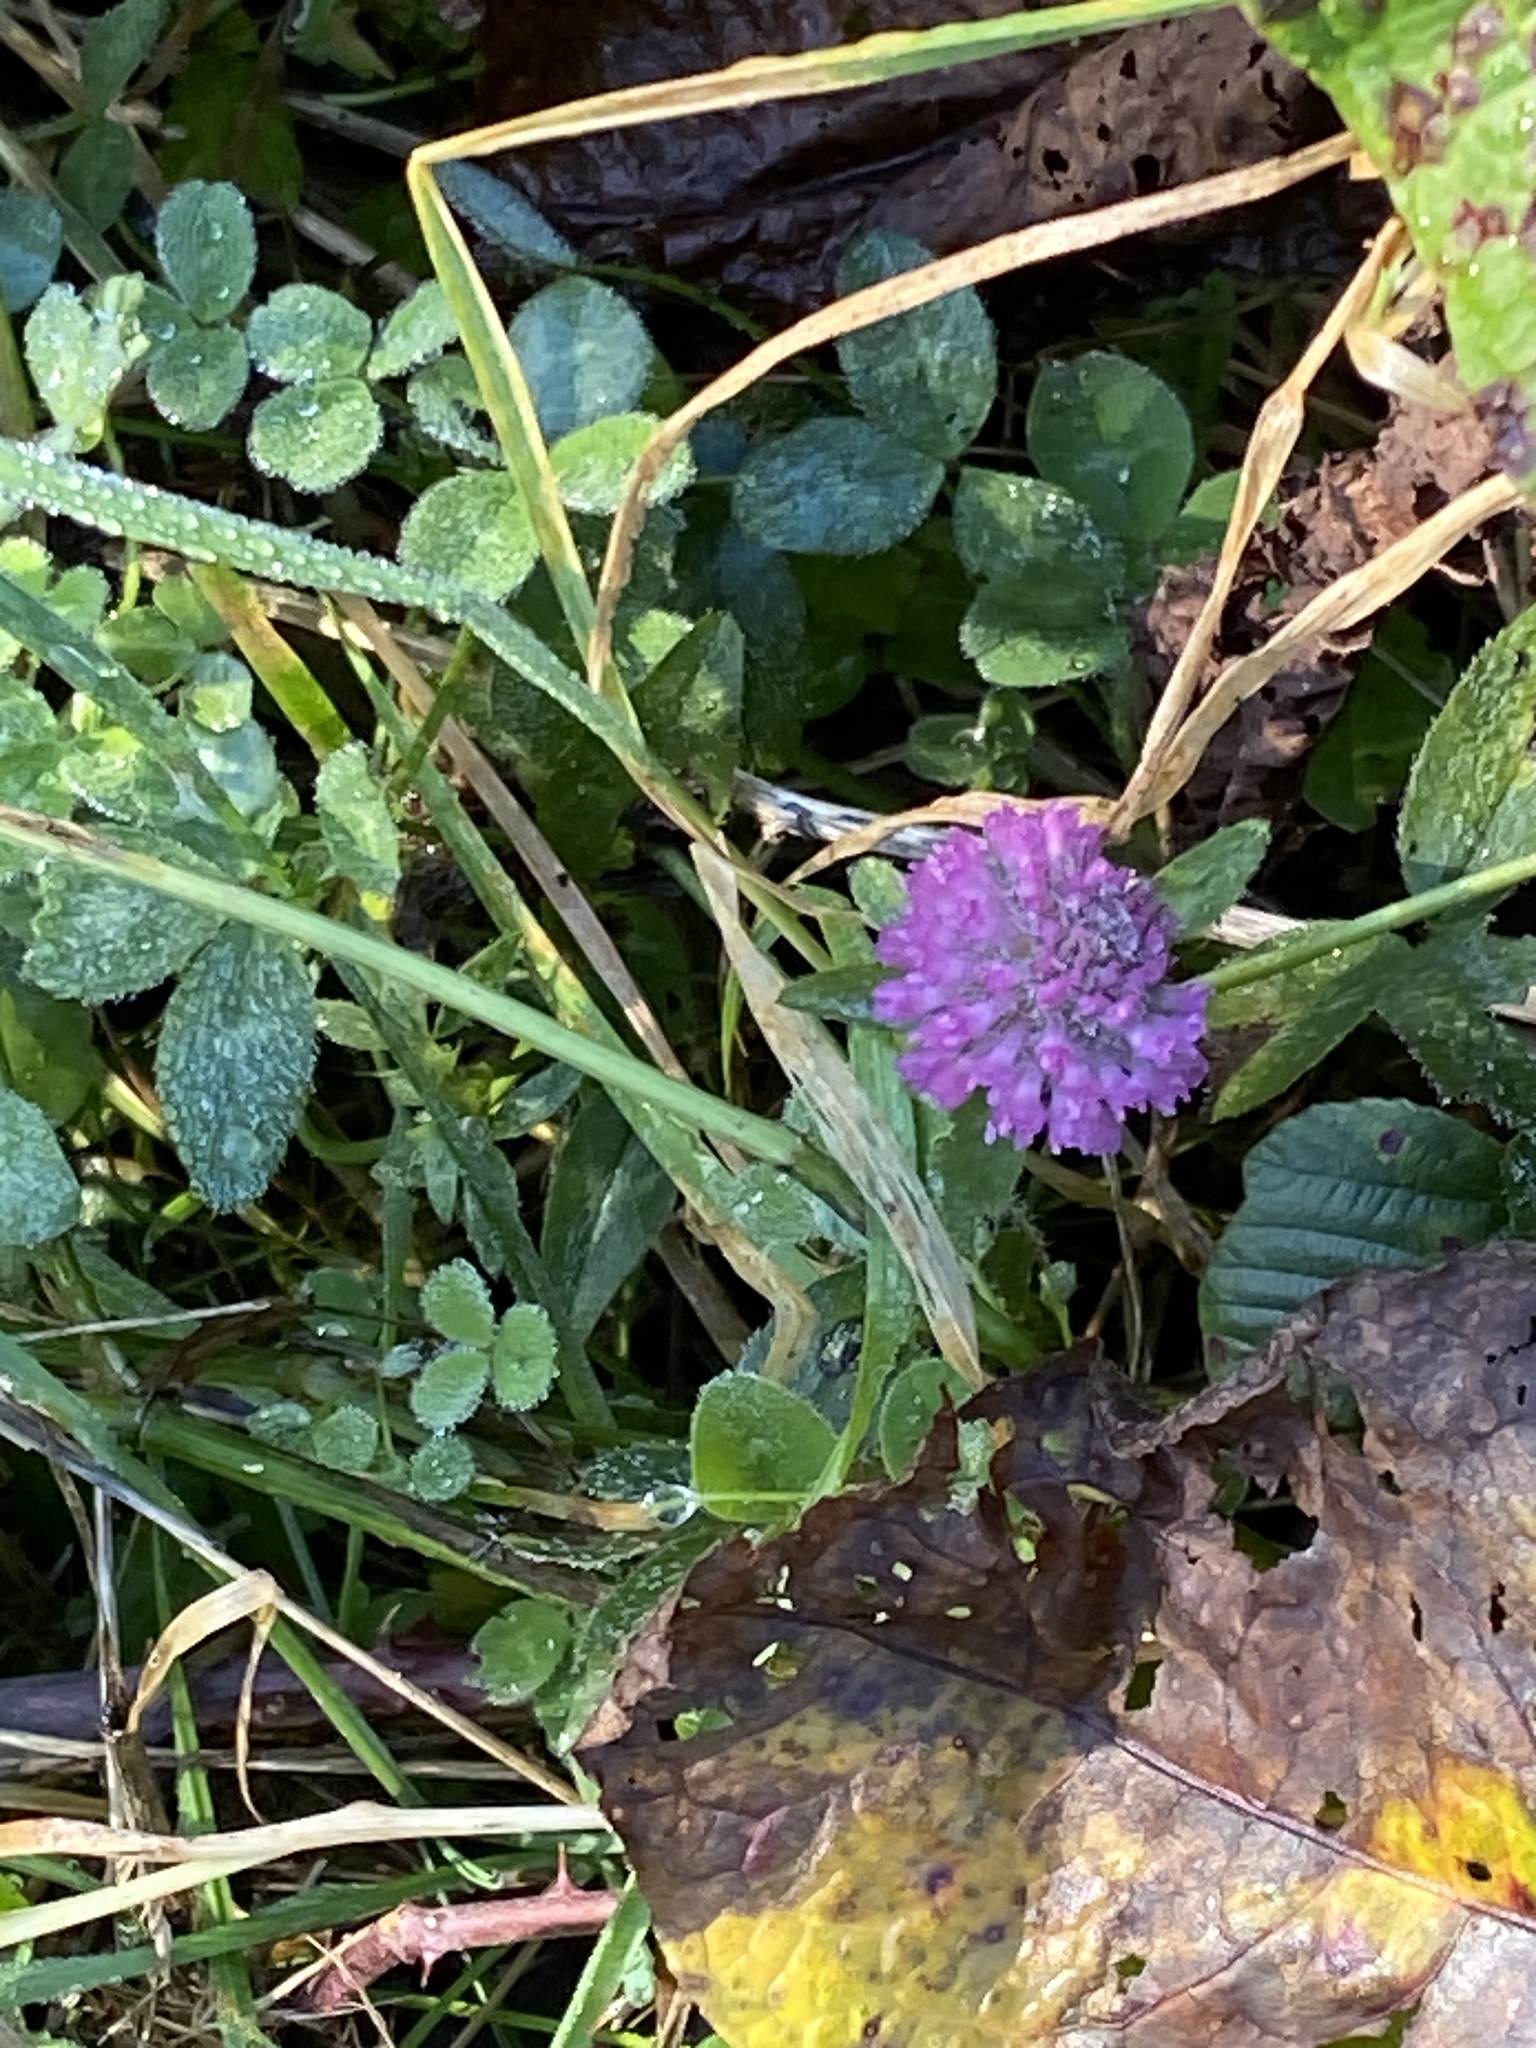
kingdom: Plantae
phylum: Tracheophyta
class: Magnoliopsida
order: Fabales
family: Fabaceae
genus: Trifolium
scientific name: Trifolium pratense
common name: Red clover
